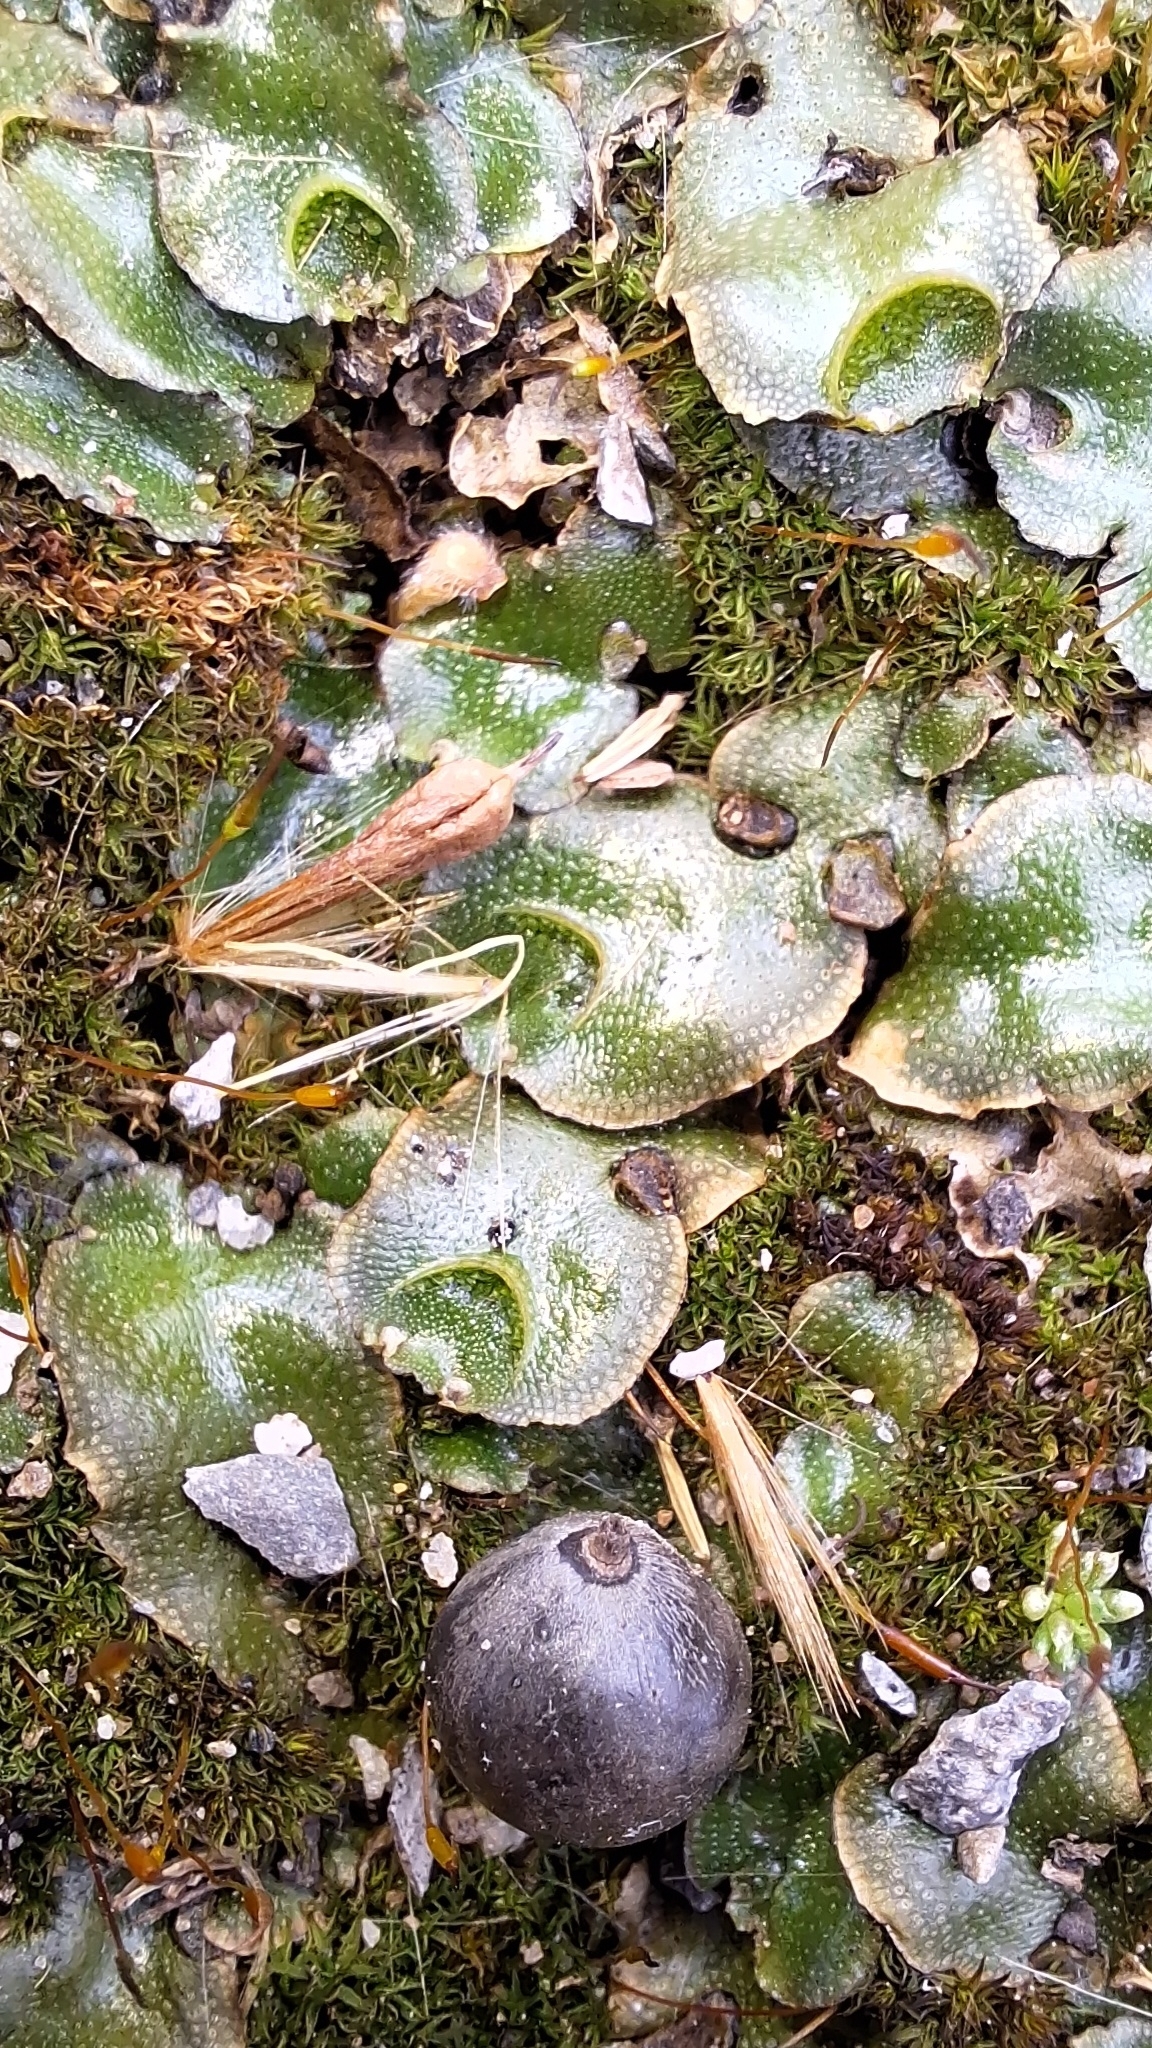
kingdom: Plantae
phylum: Marchantiophyta
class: Marchantiopsida
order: Lunulariales
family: Lunulariaceae
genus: Lunularia
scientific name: Lunularia cruciata
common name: Crescent-cup liverwort
